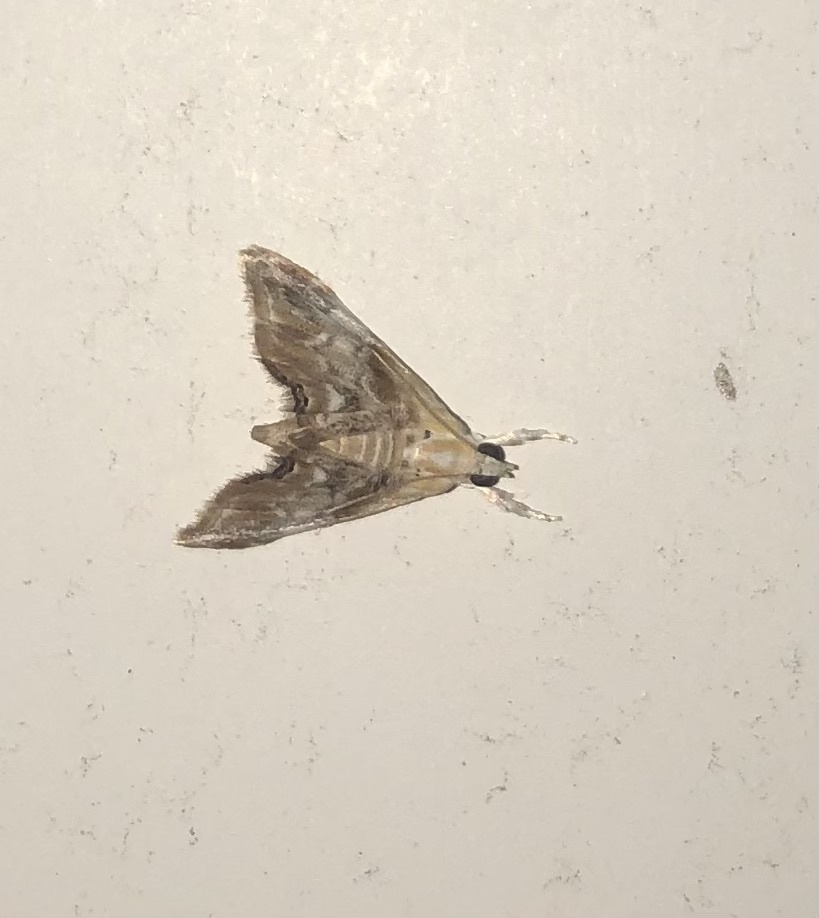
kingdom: Animalia
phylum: Arthropoda
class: Insecta
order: Lepidoptera
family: Crambidae
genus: Dicymolomia
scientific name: Dicymolomia julianalis
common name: Julia's dicymolomia moth
